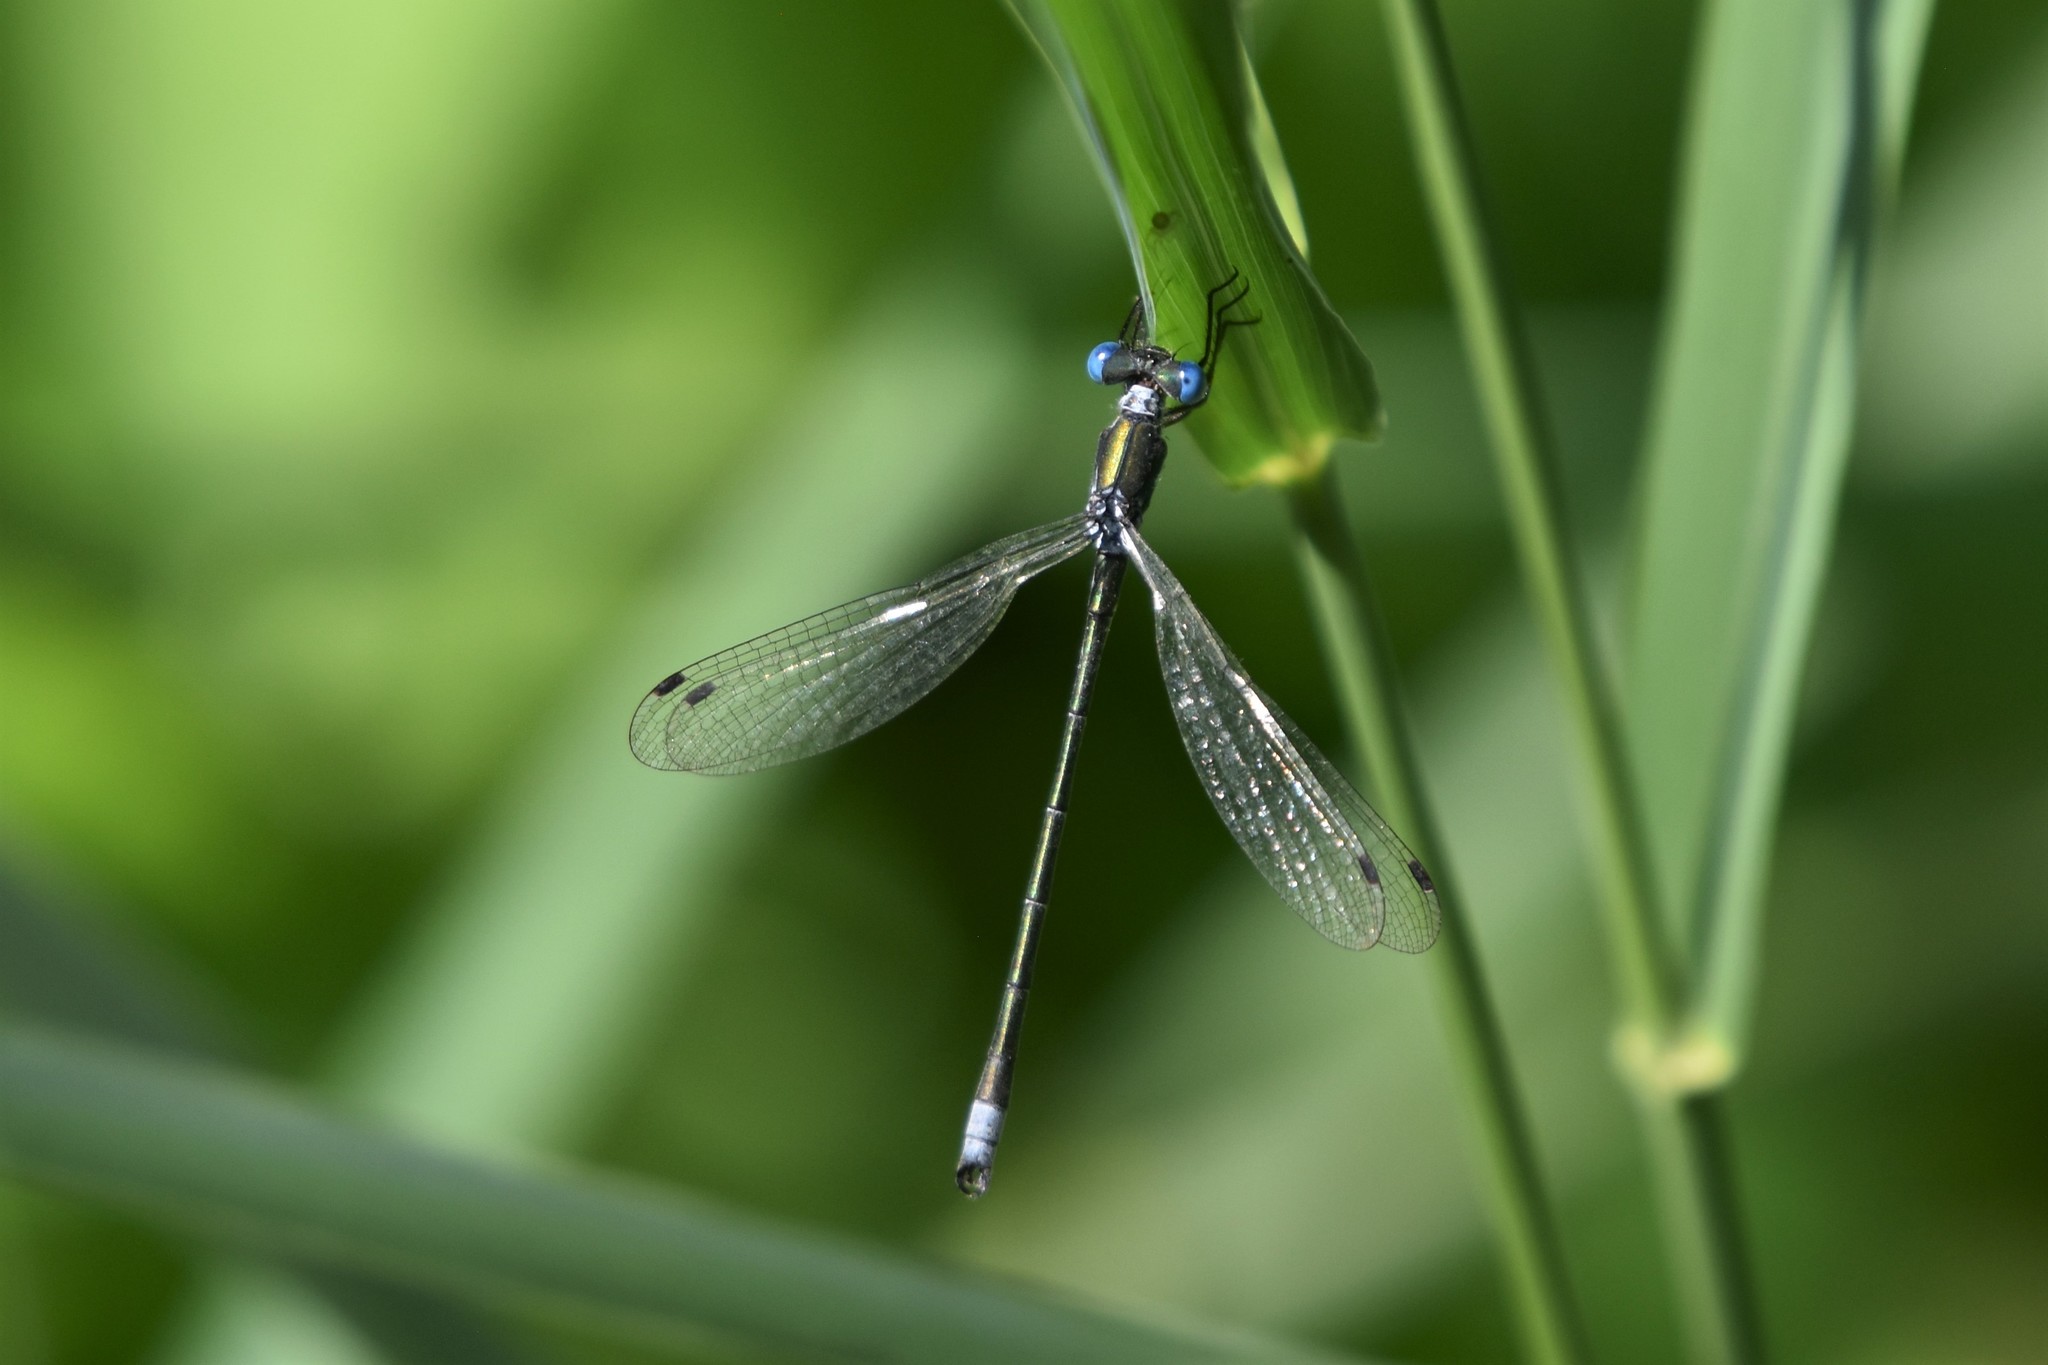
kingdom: Animalia
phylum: Arthropoda
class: Insecta
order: Odonata
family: Lestidae
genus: Lestes
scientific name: Lestes dryas
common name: Scarce emerald damselfly
